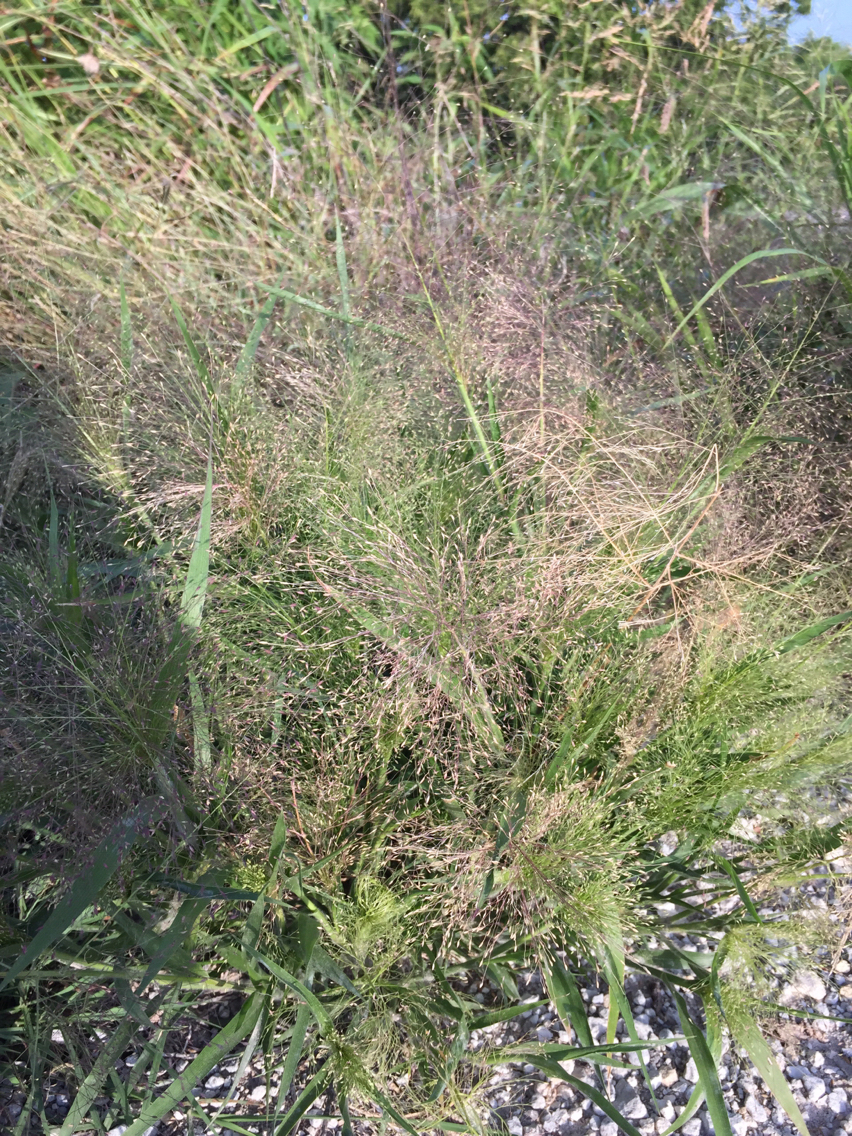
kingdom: Plantae
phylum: Tracheophyta
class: Liliopsida
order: Poales
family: Poaceae
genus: Panicum
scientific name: Panicum capillare
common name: Witch-grass
